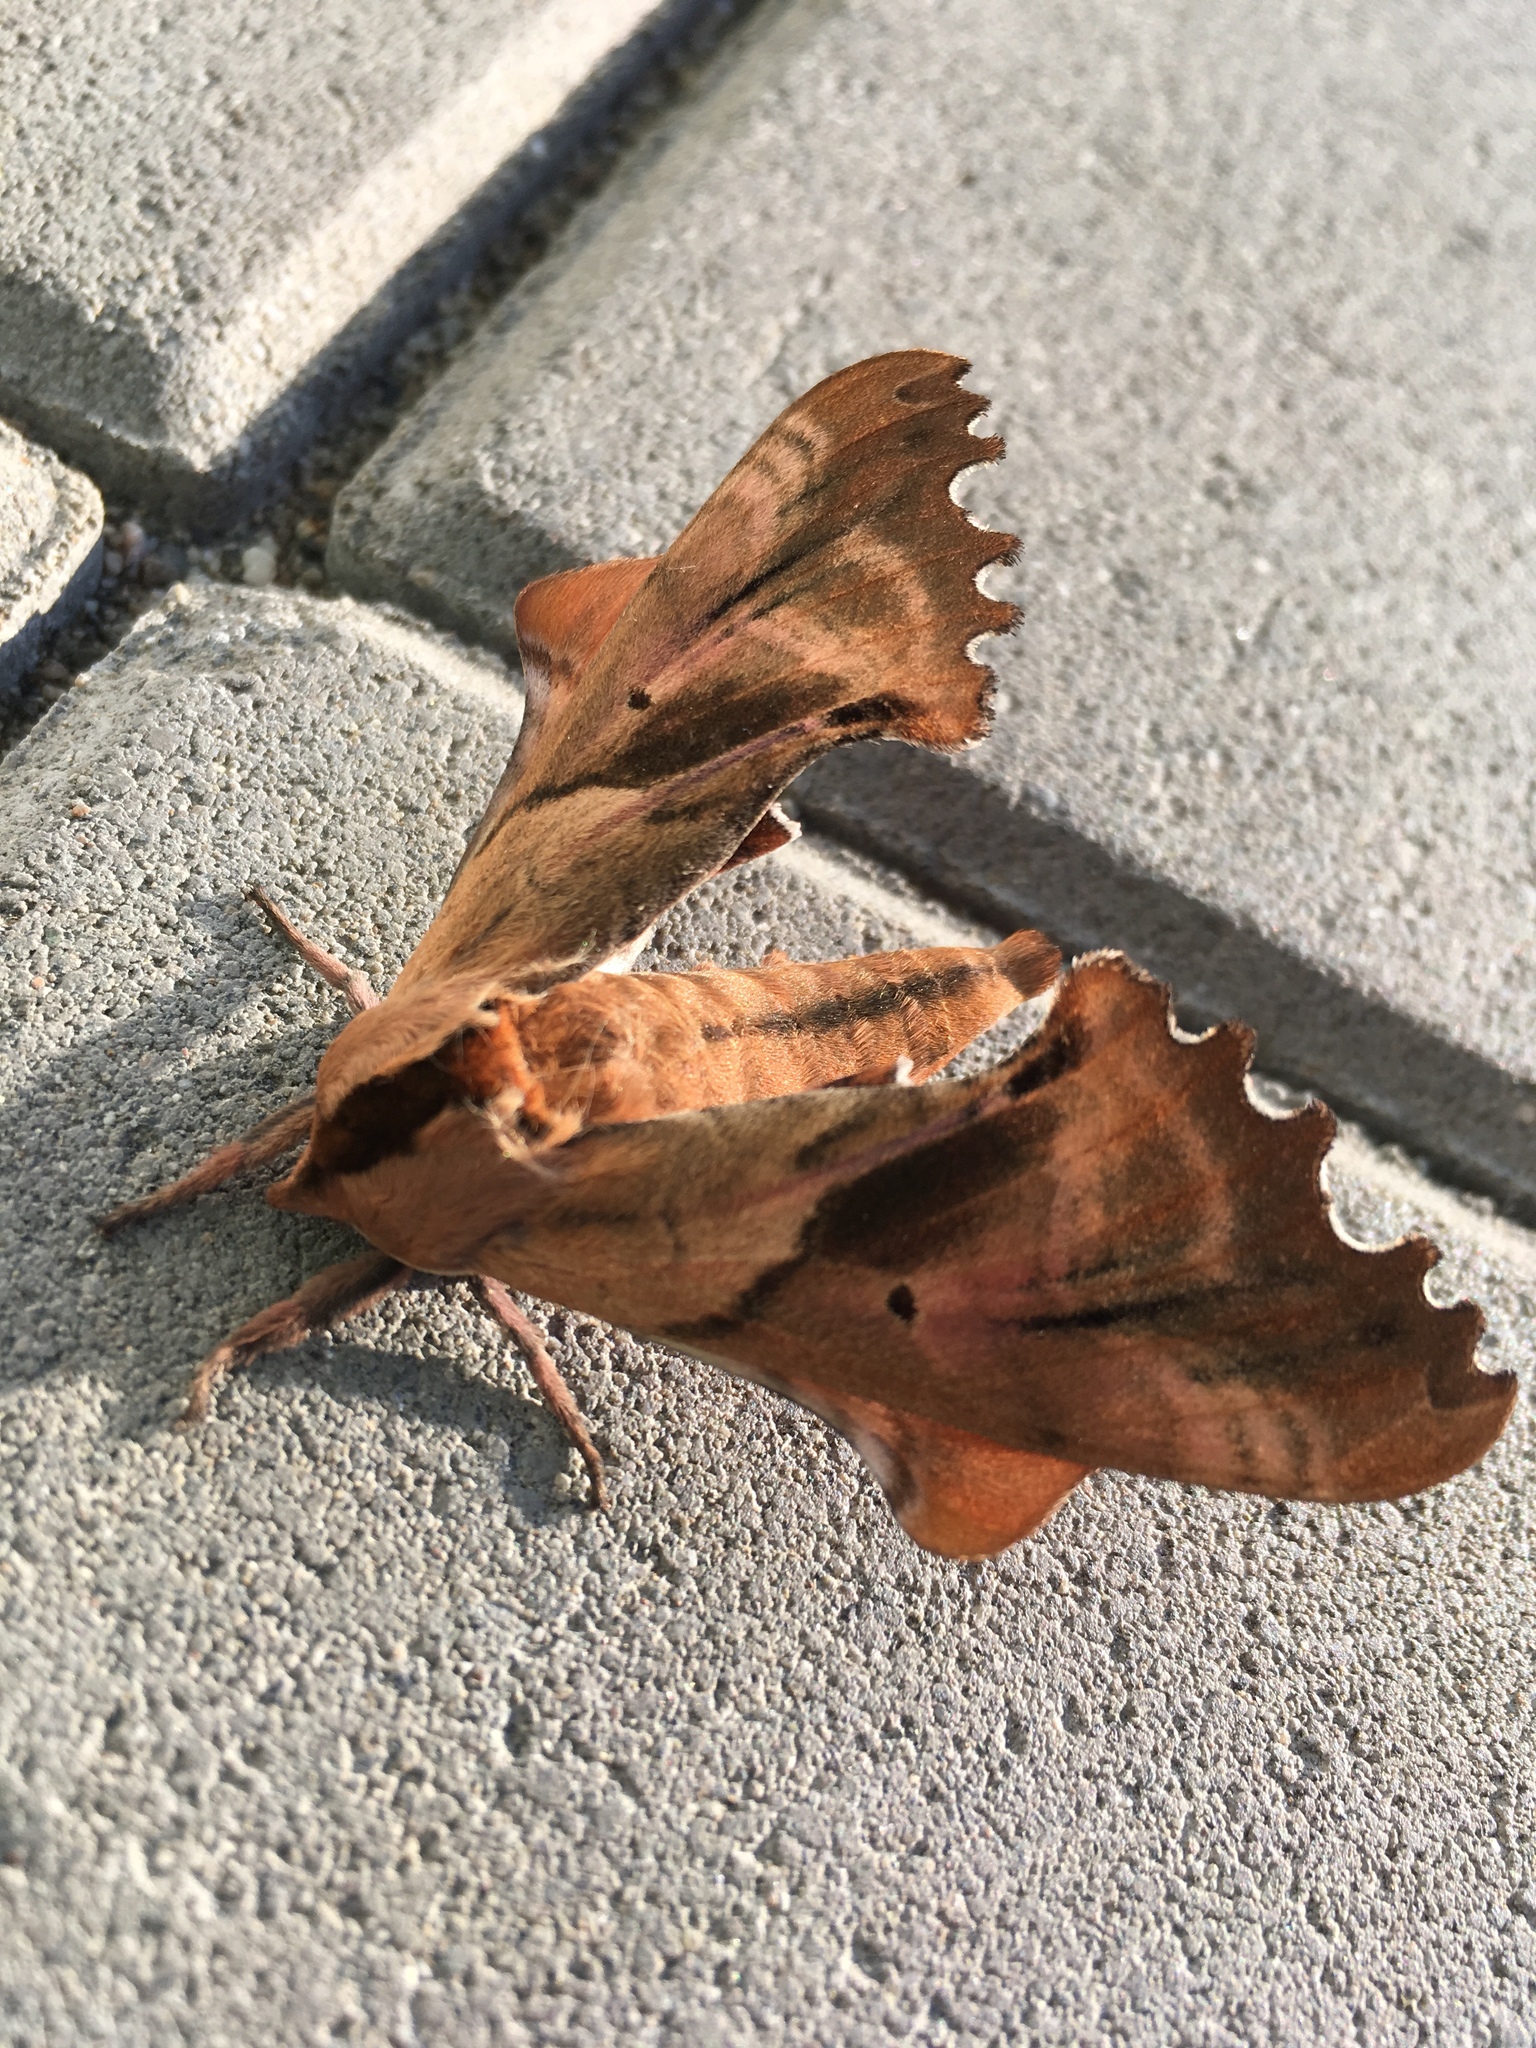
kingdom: Animalia
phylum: Arthropoda
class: Insecta
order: Lepidoptera
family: Sphingidae
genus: Paonias
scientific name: Paonias excaecata
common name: Blind-eyed sphinx
